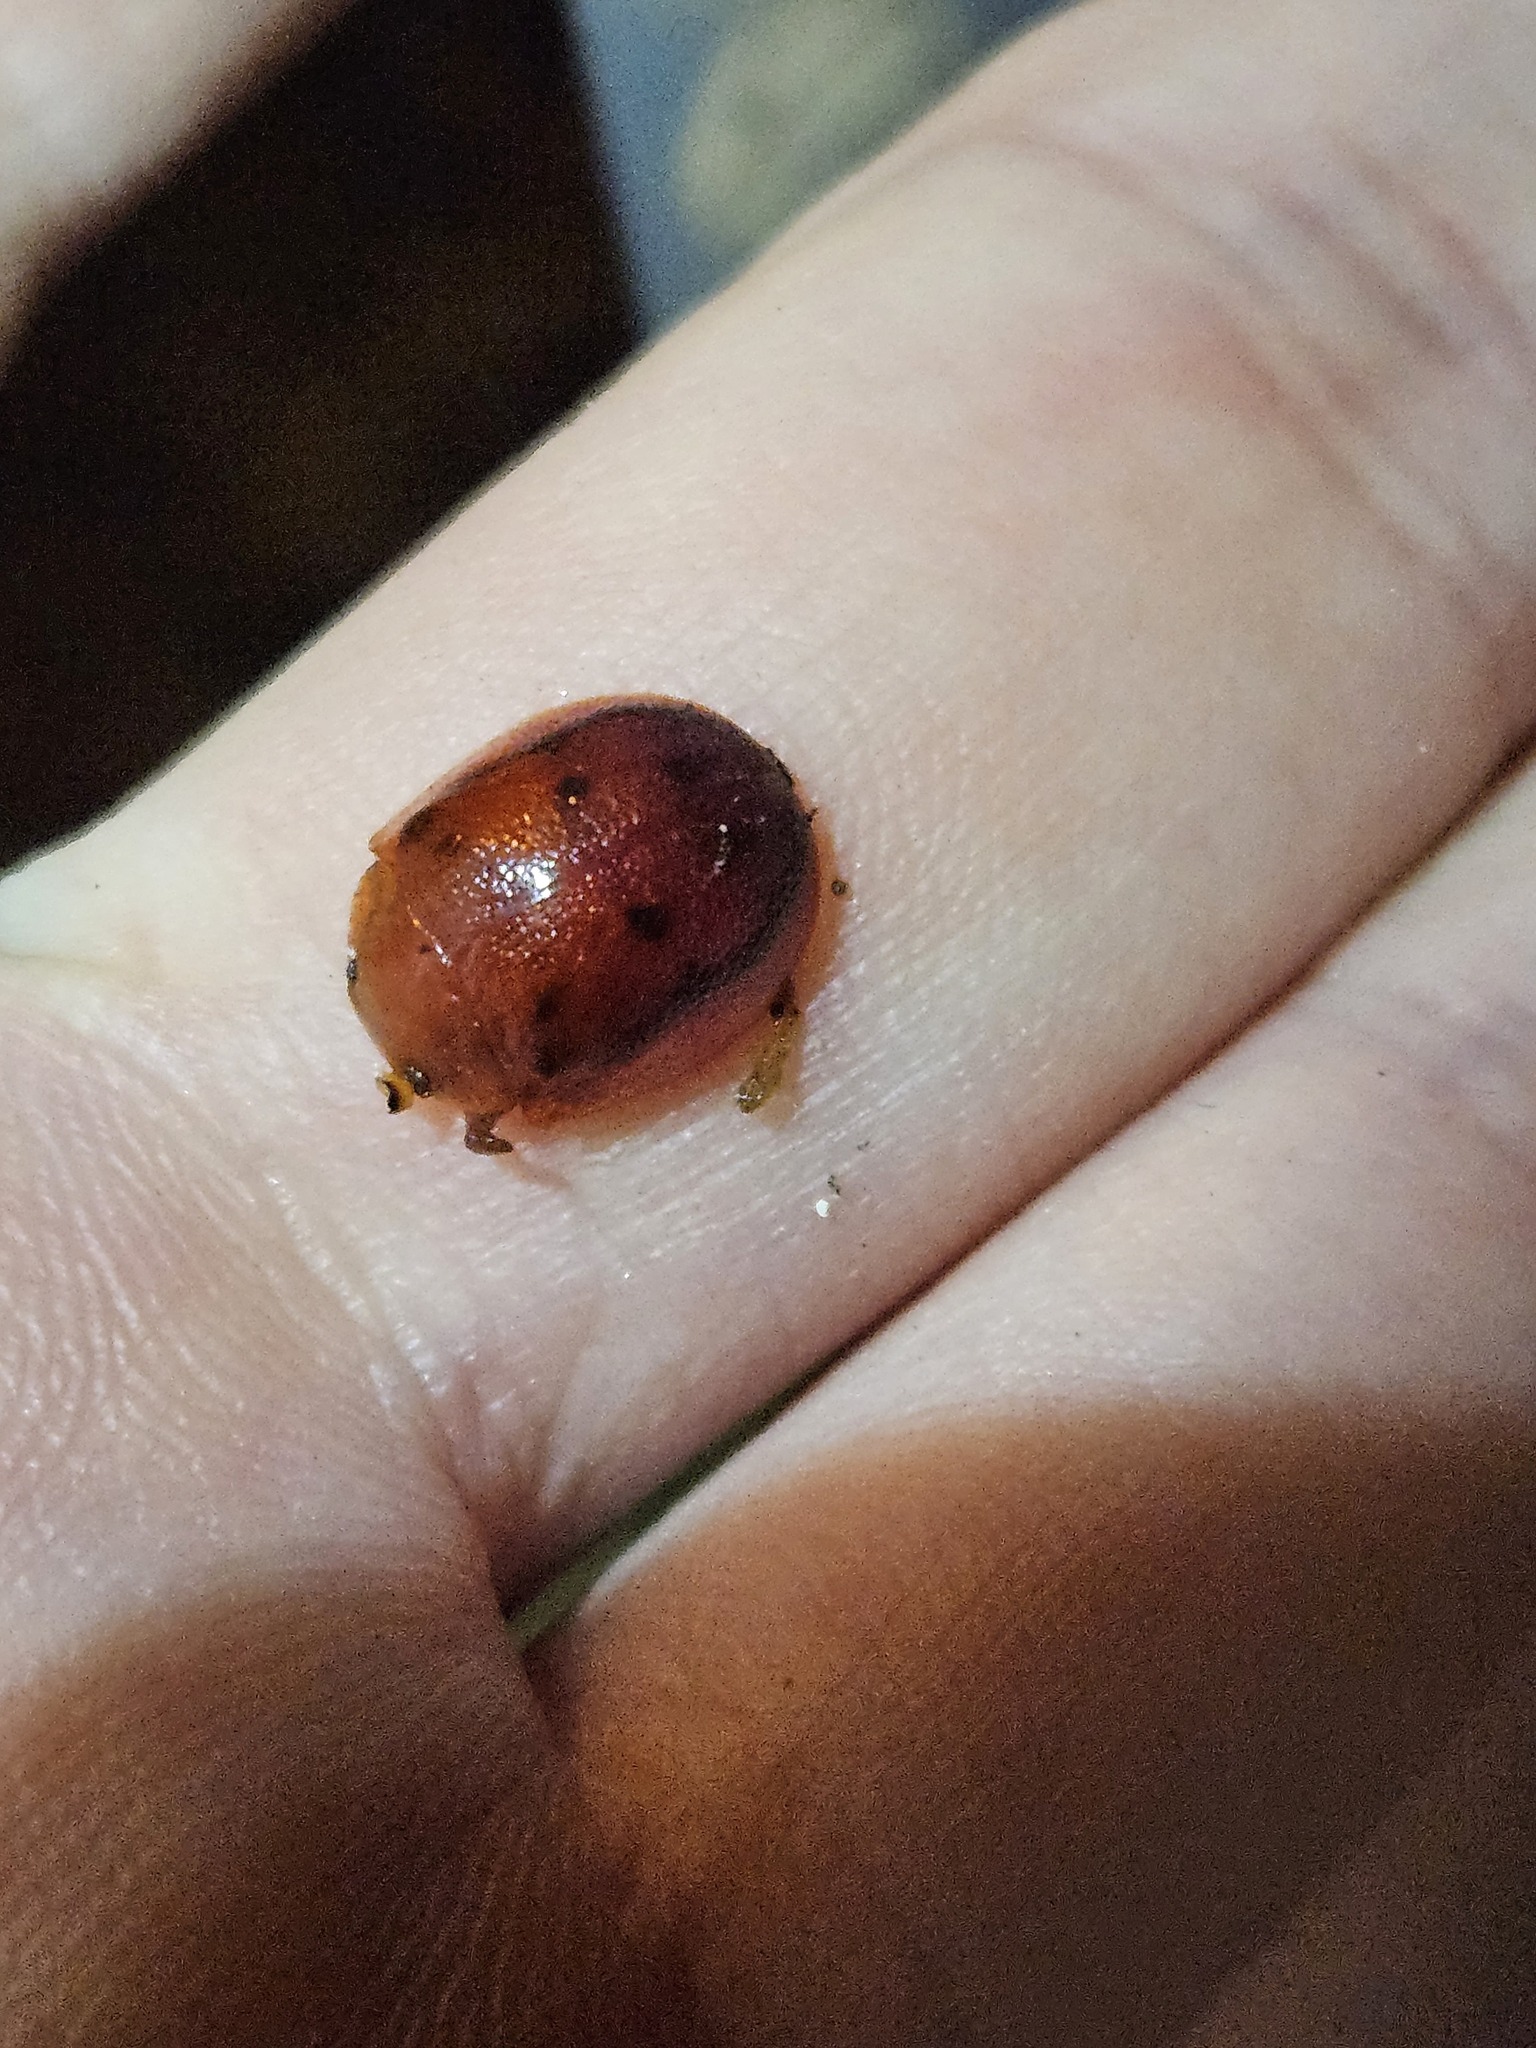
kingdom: Animalia
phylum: Arthropoda
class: Insecta
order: Coleoptera
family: Chrysomelidae
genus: Paropsis
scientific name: Paropsis
